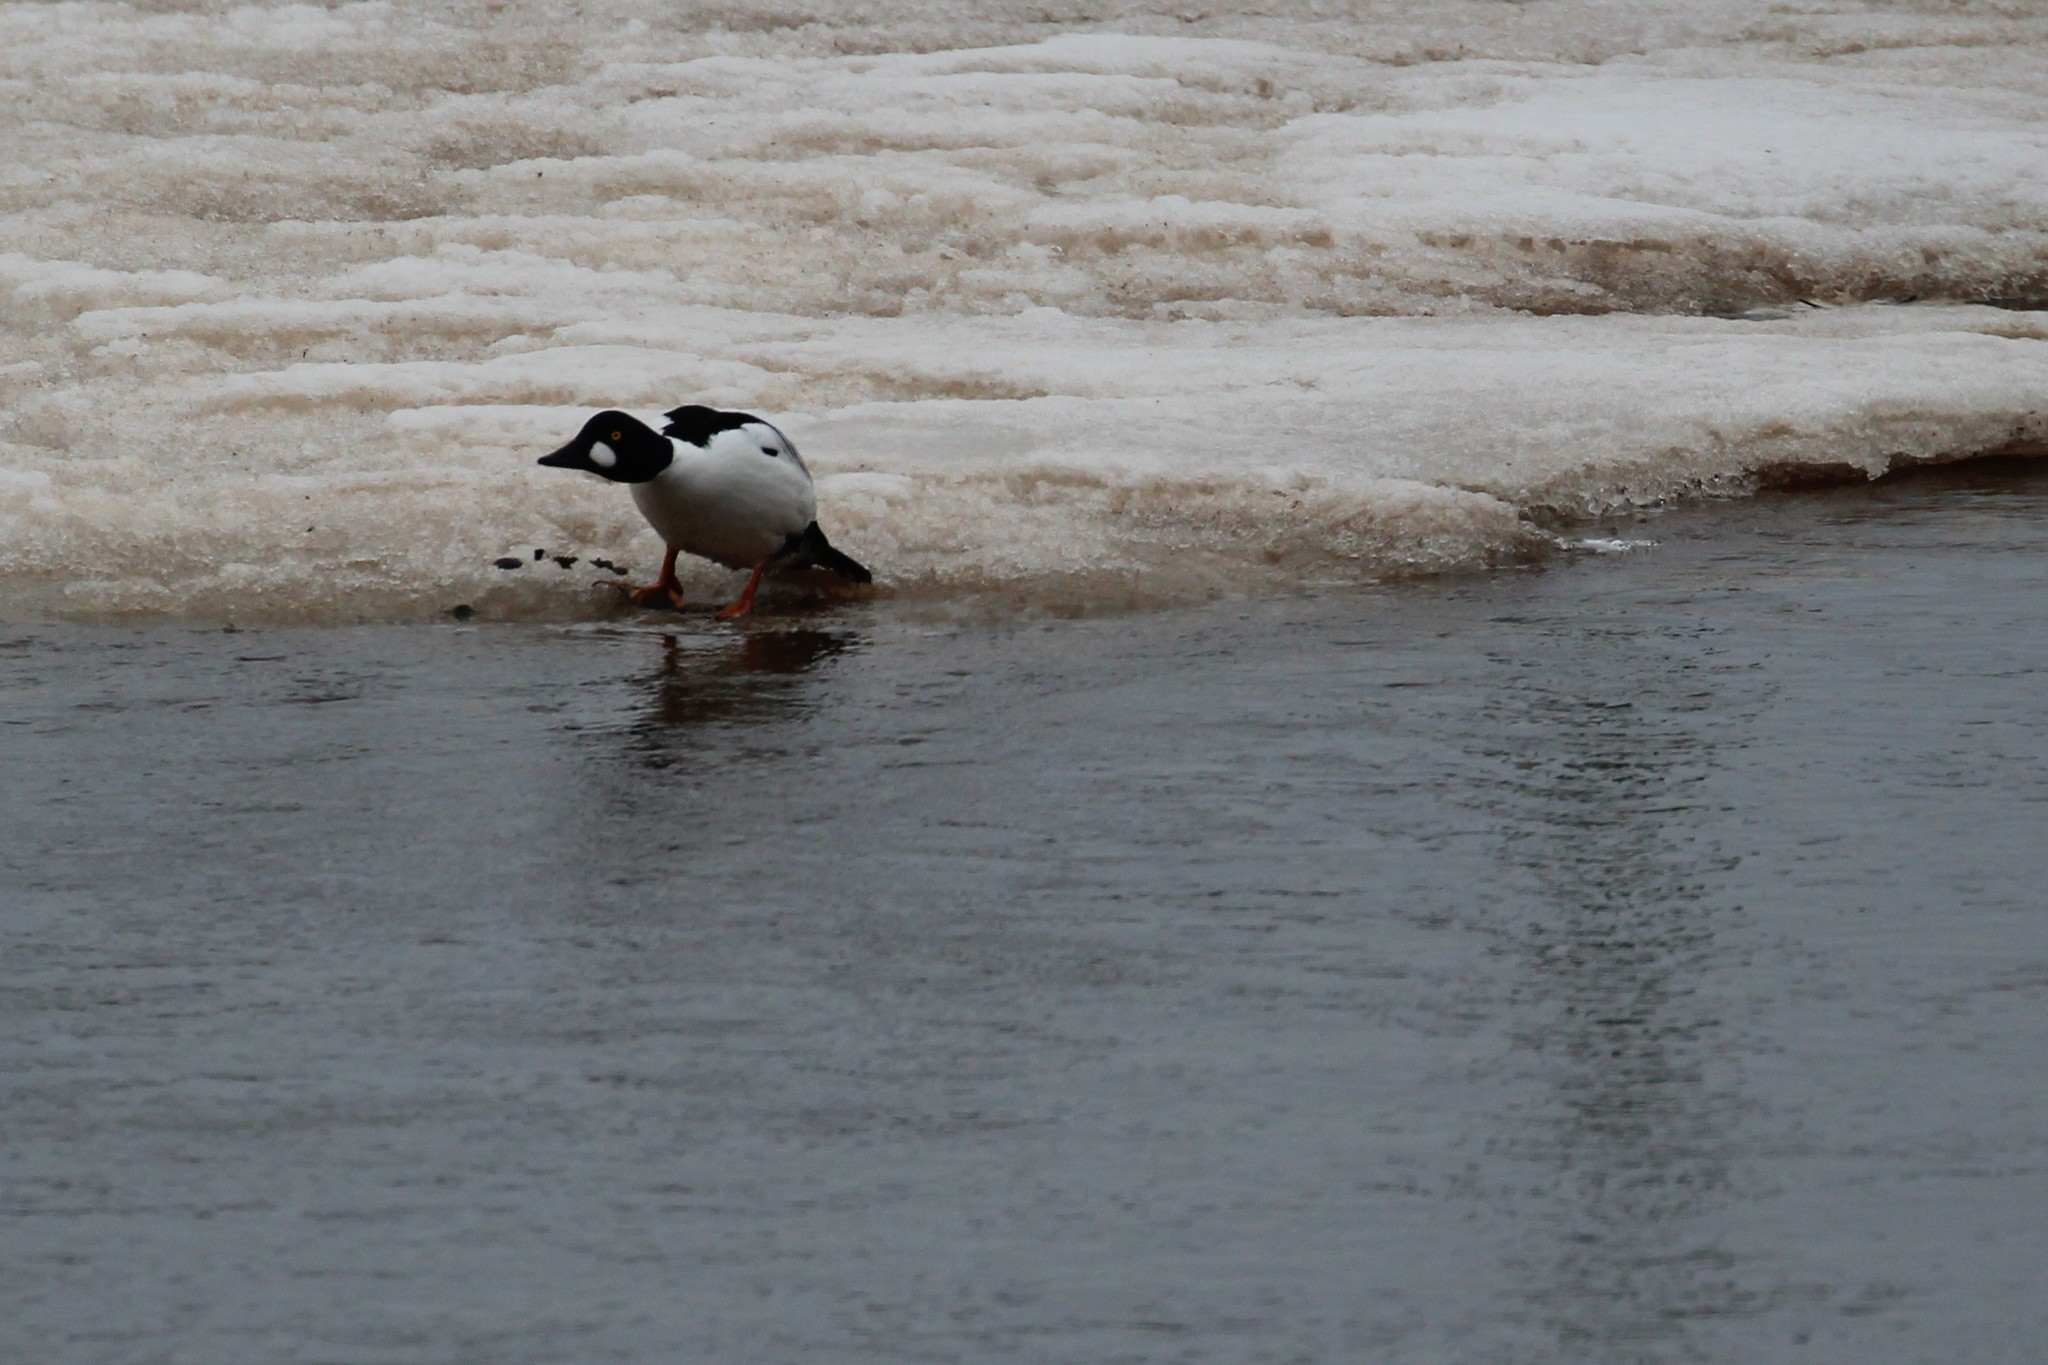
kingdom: Animalia
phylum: Chordata
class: Aves
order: Anseriformes
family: Anatidae
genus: Bucephala
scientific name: Bucephala clangula
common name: Common goldeneye
